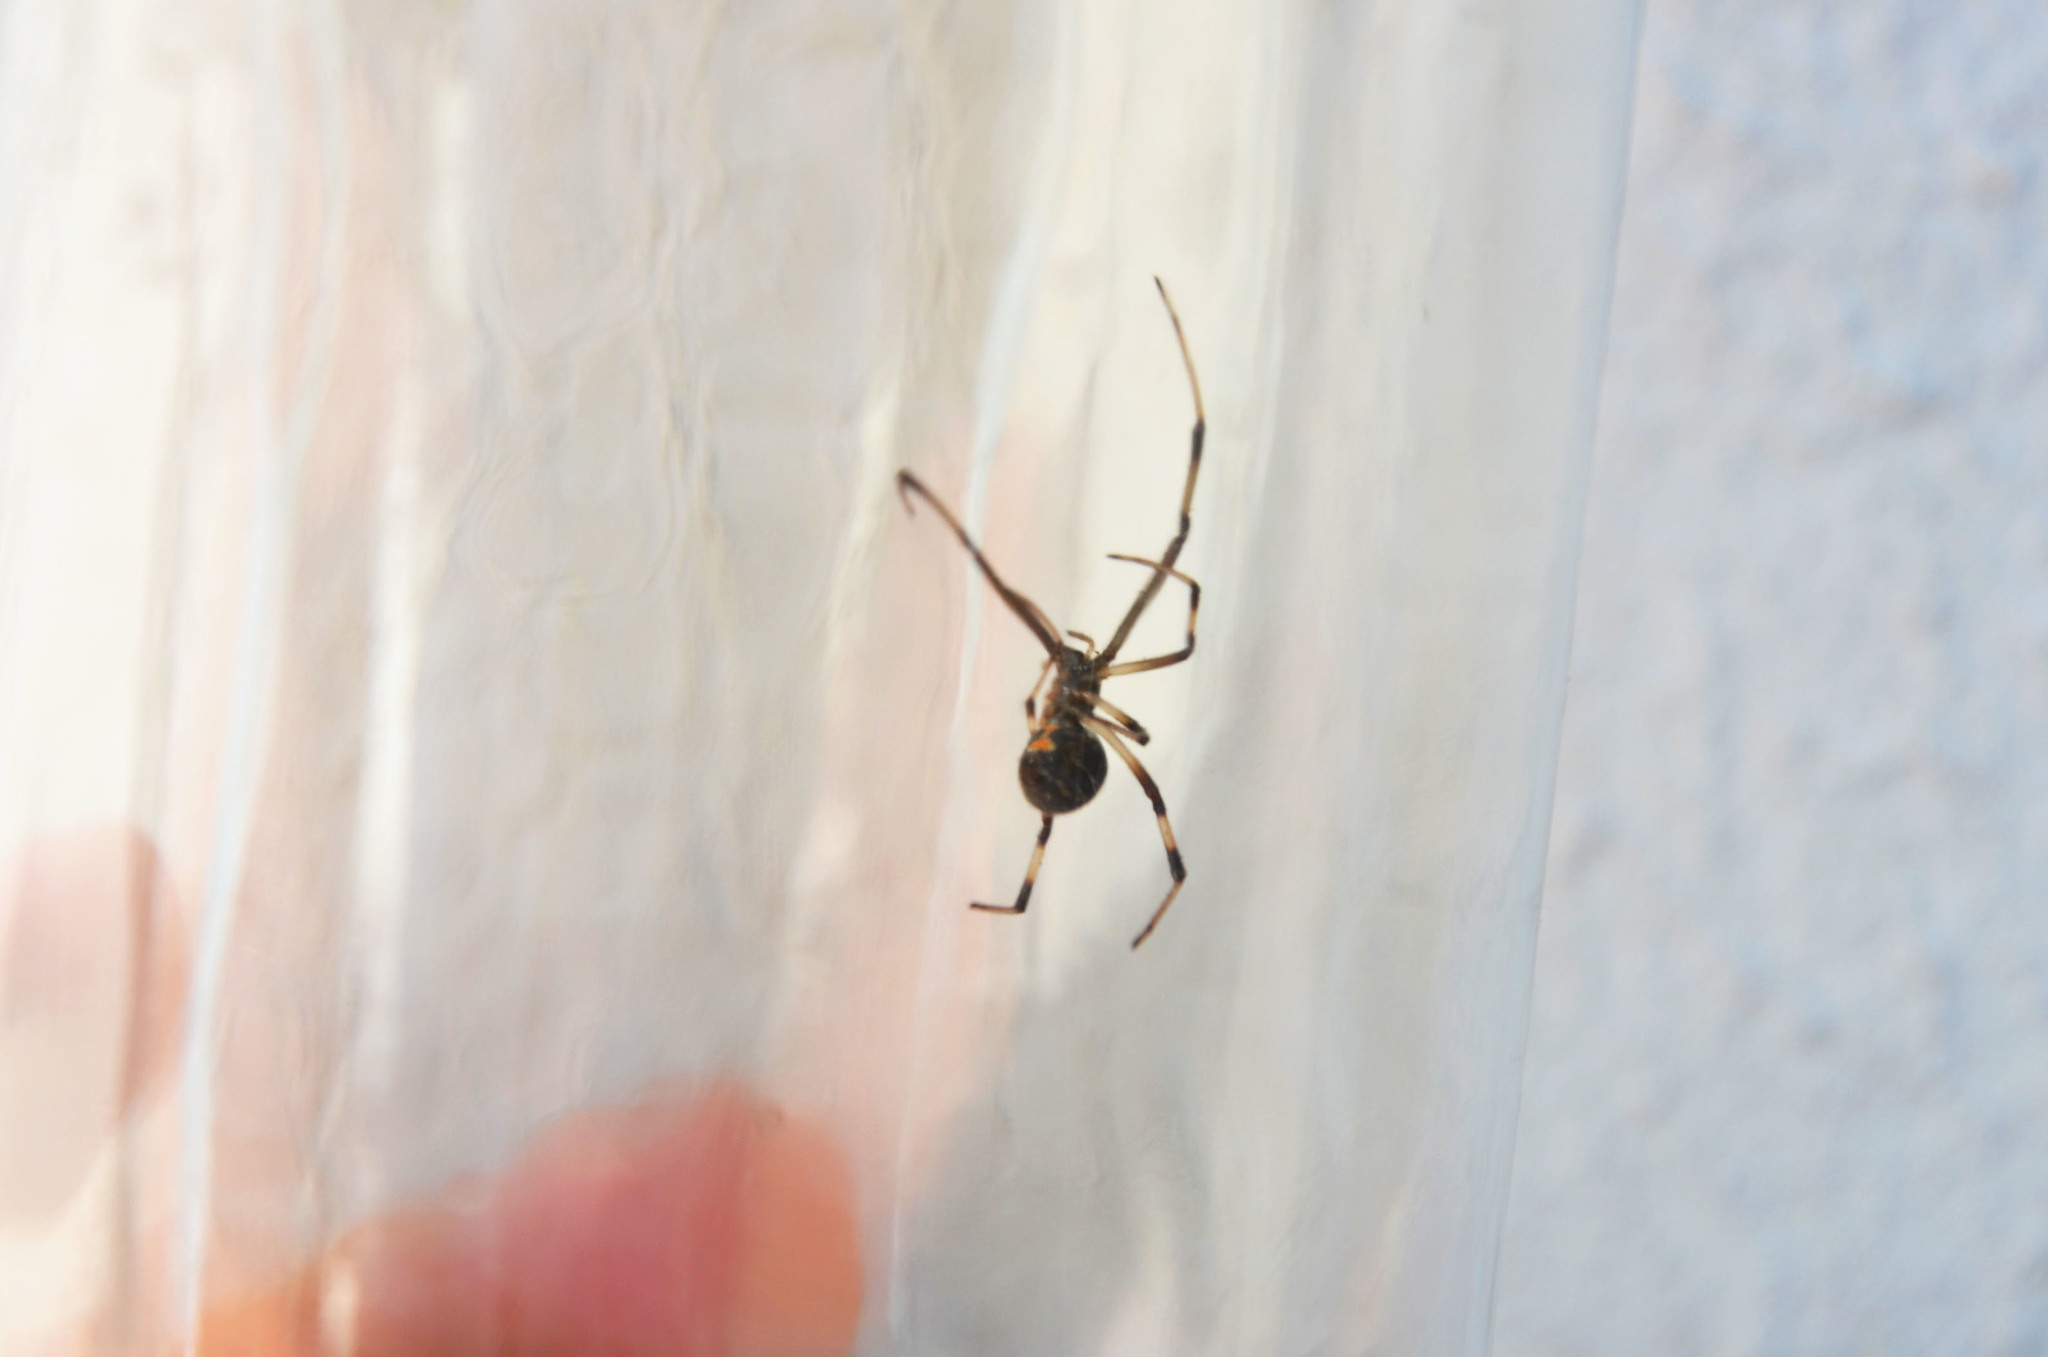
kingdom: Animalia
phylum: Arthropoda
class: Arachnida
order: Araneae
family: Theridiidae
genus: Latrodectus
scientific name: Latrodectus geometricus
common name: Brown widow spider
